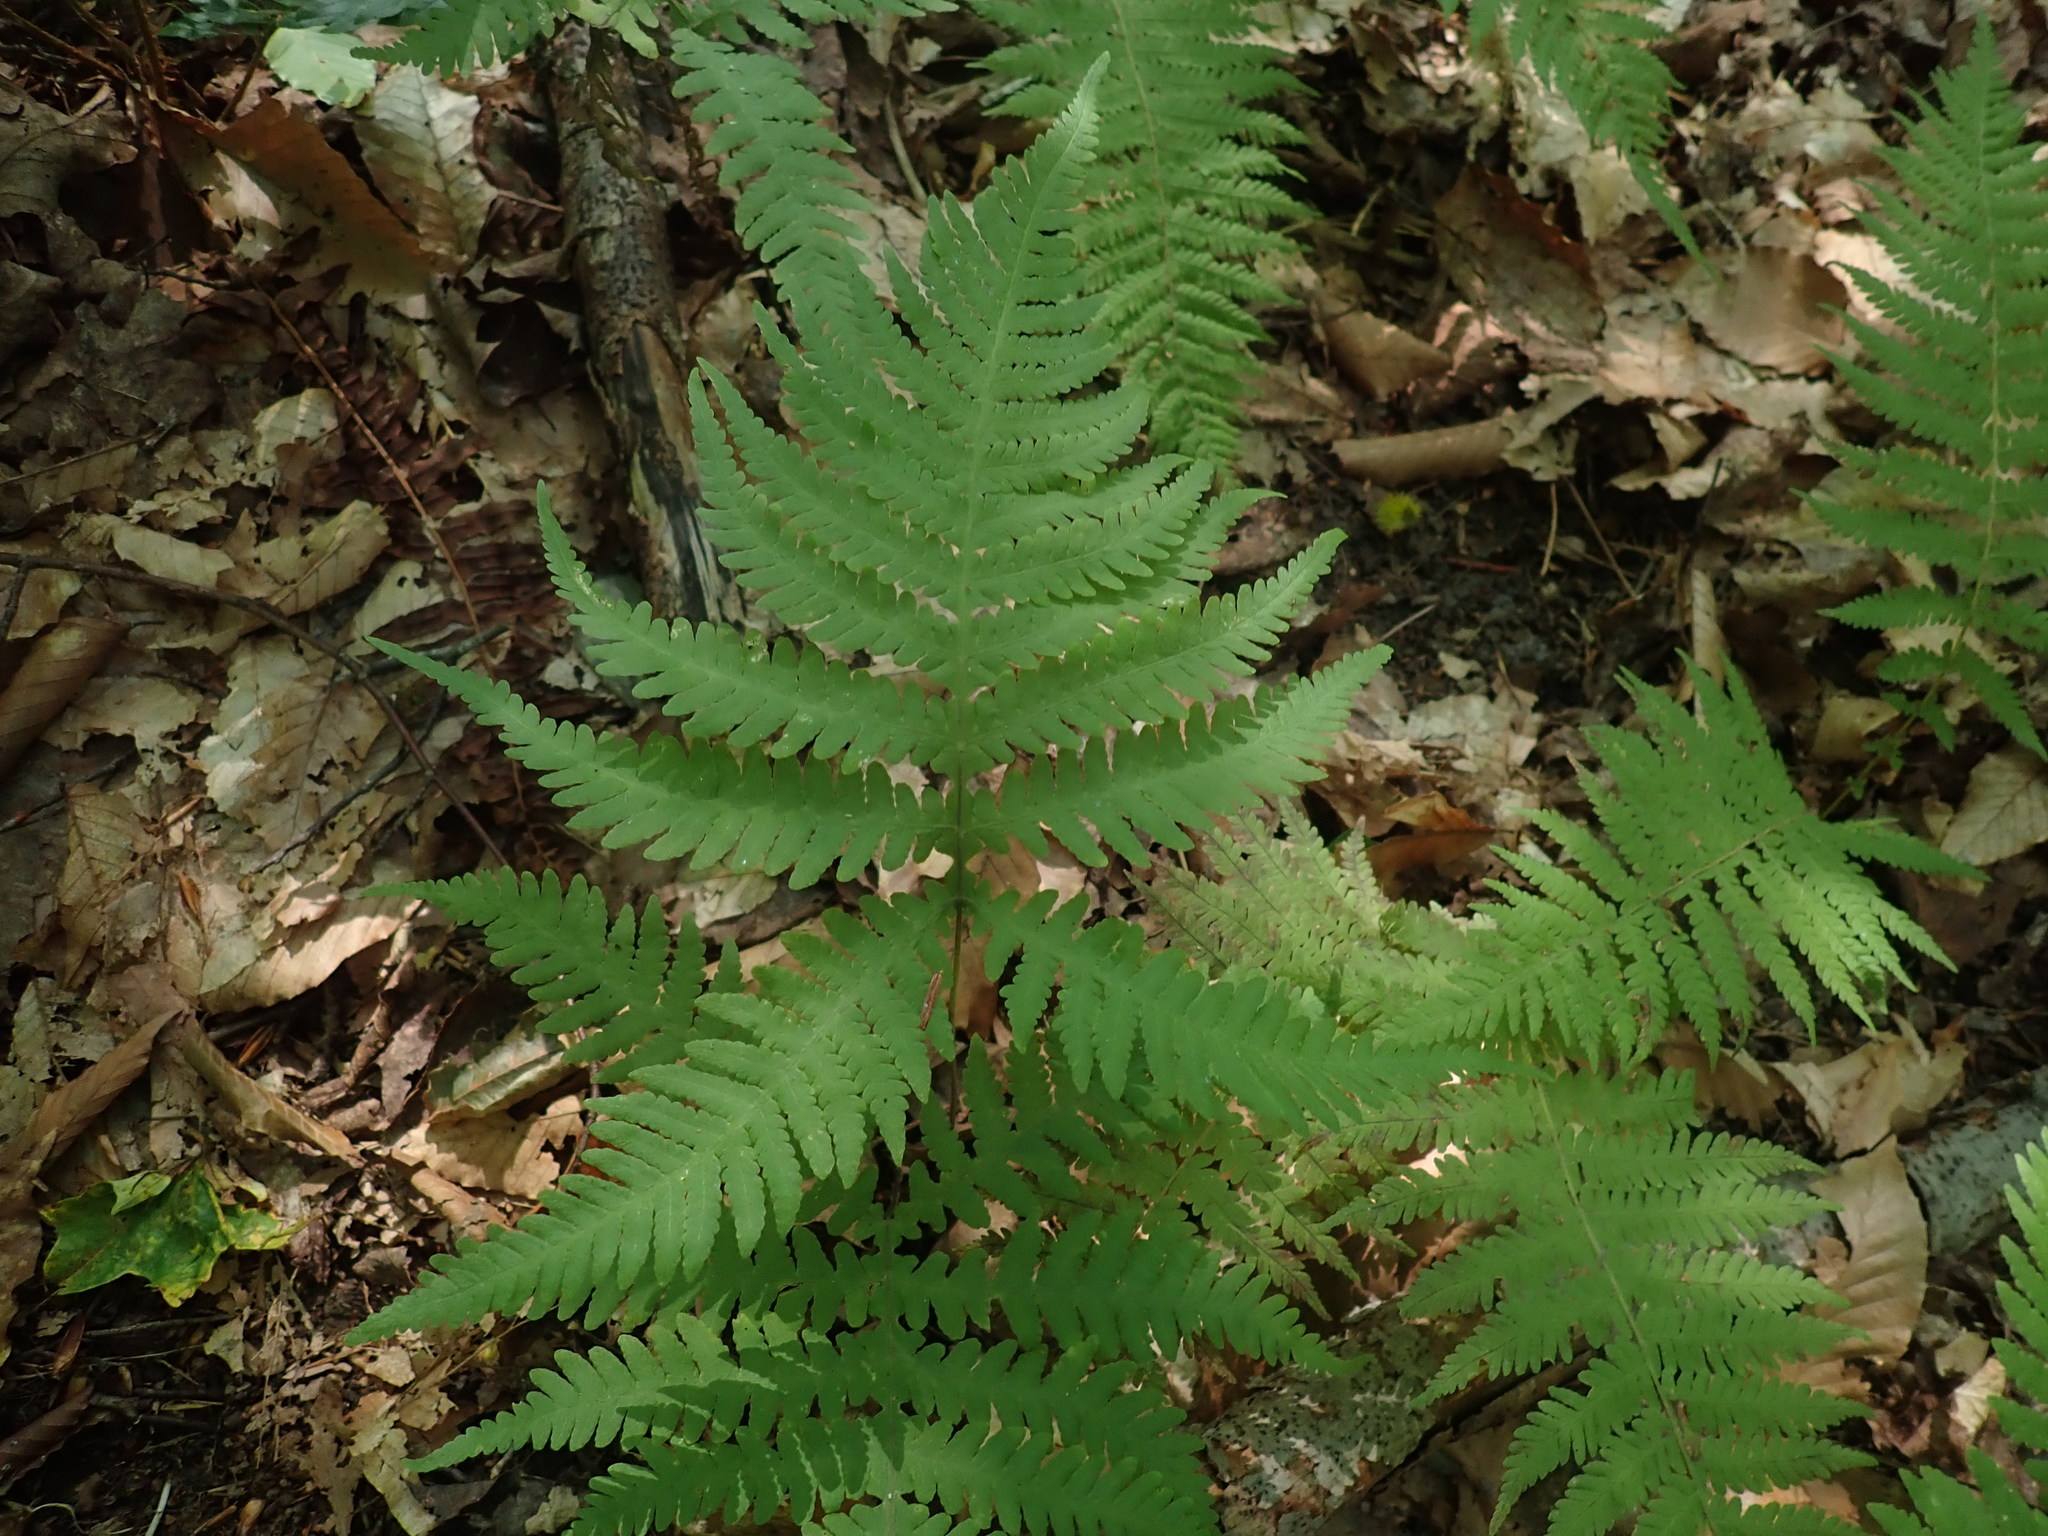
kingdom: Plantae
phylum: Tracheophyta
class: Polypodiopsida
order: Polypodiales
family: Thelypteridaceae
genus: Phegopteris
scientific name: Phegopteris hexagonoptera
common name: Broad beech fern
